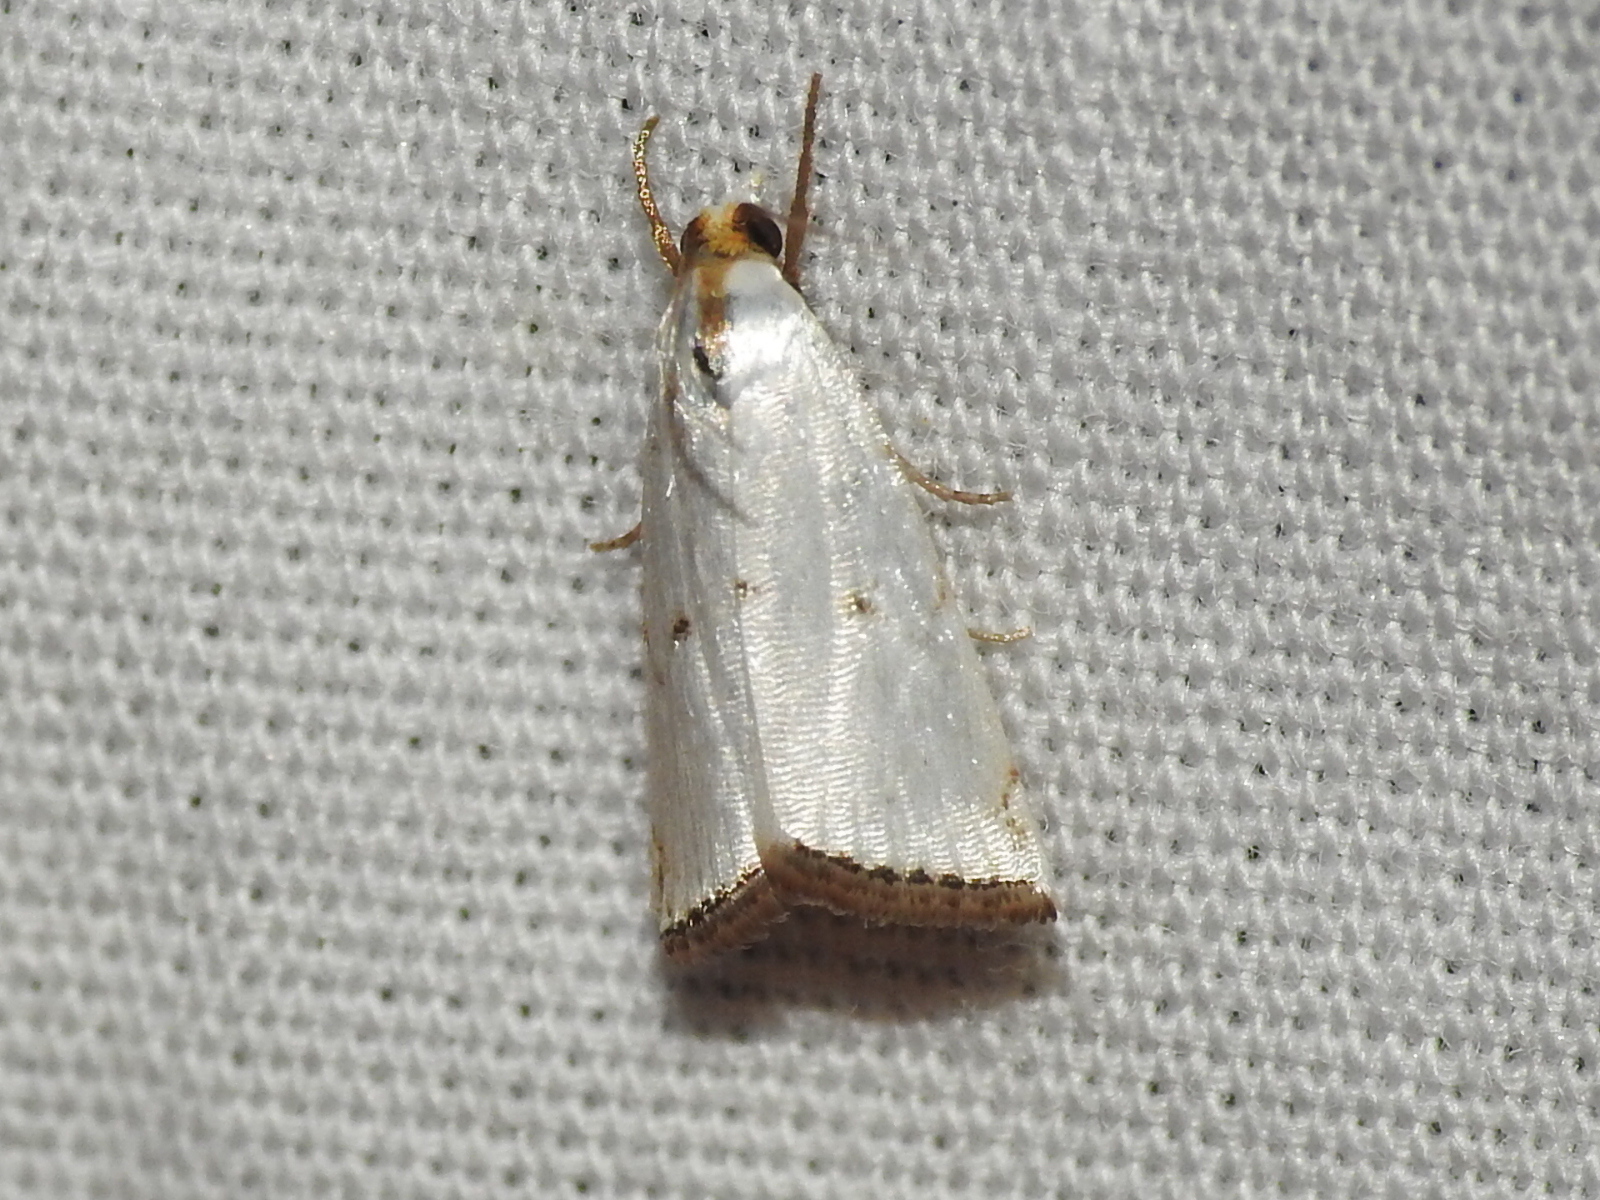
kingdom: Animalia
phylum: Arthropoda
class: Insecta
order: Lepidoptera
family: Crambidae
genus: Argyria
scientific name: Argyria pusillalis
